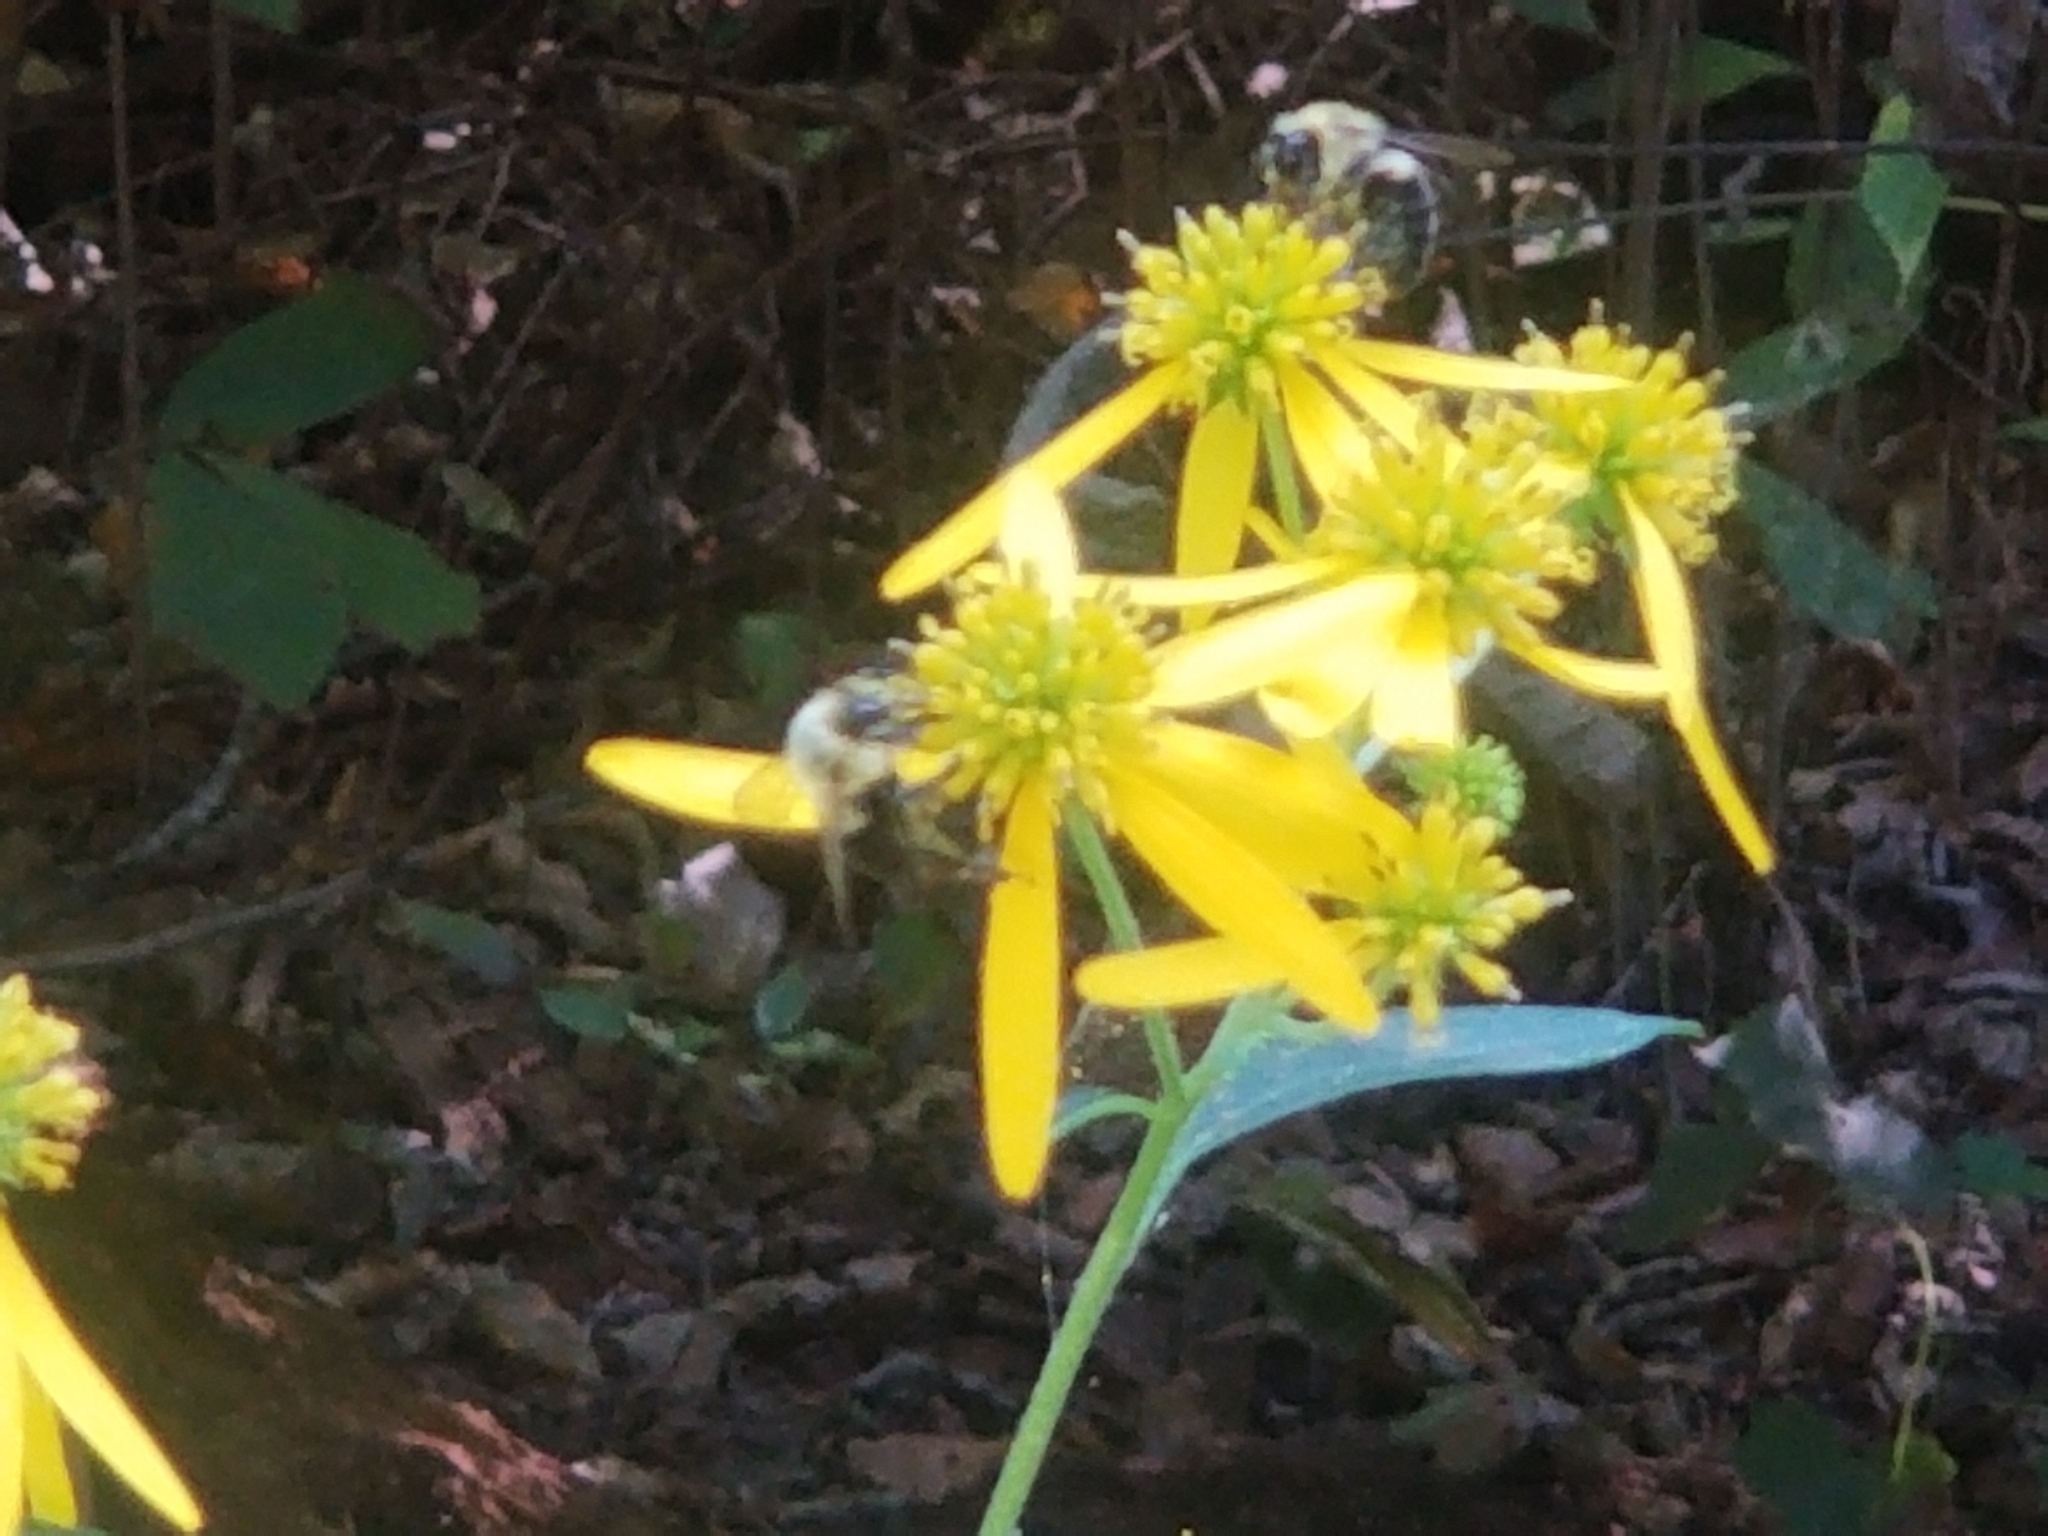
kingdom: Animalia
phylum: Arthropoda
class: Insecta
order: Hymenoptera
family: Apidae
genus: Bombus
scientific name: Bombus impatiens
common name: Common eastern bumble bee
